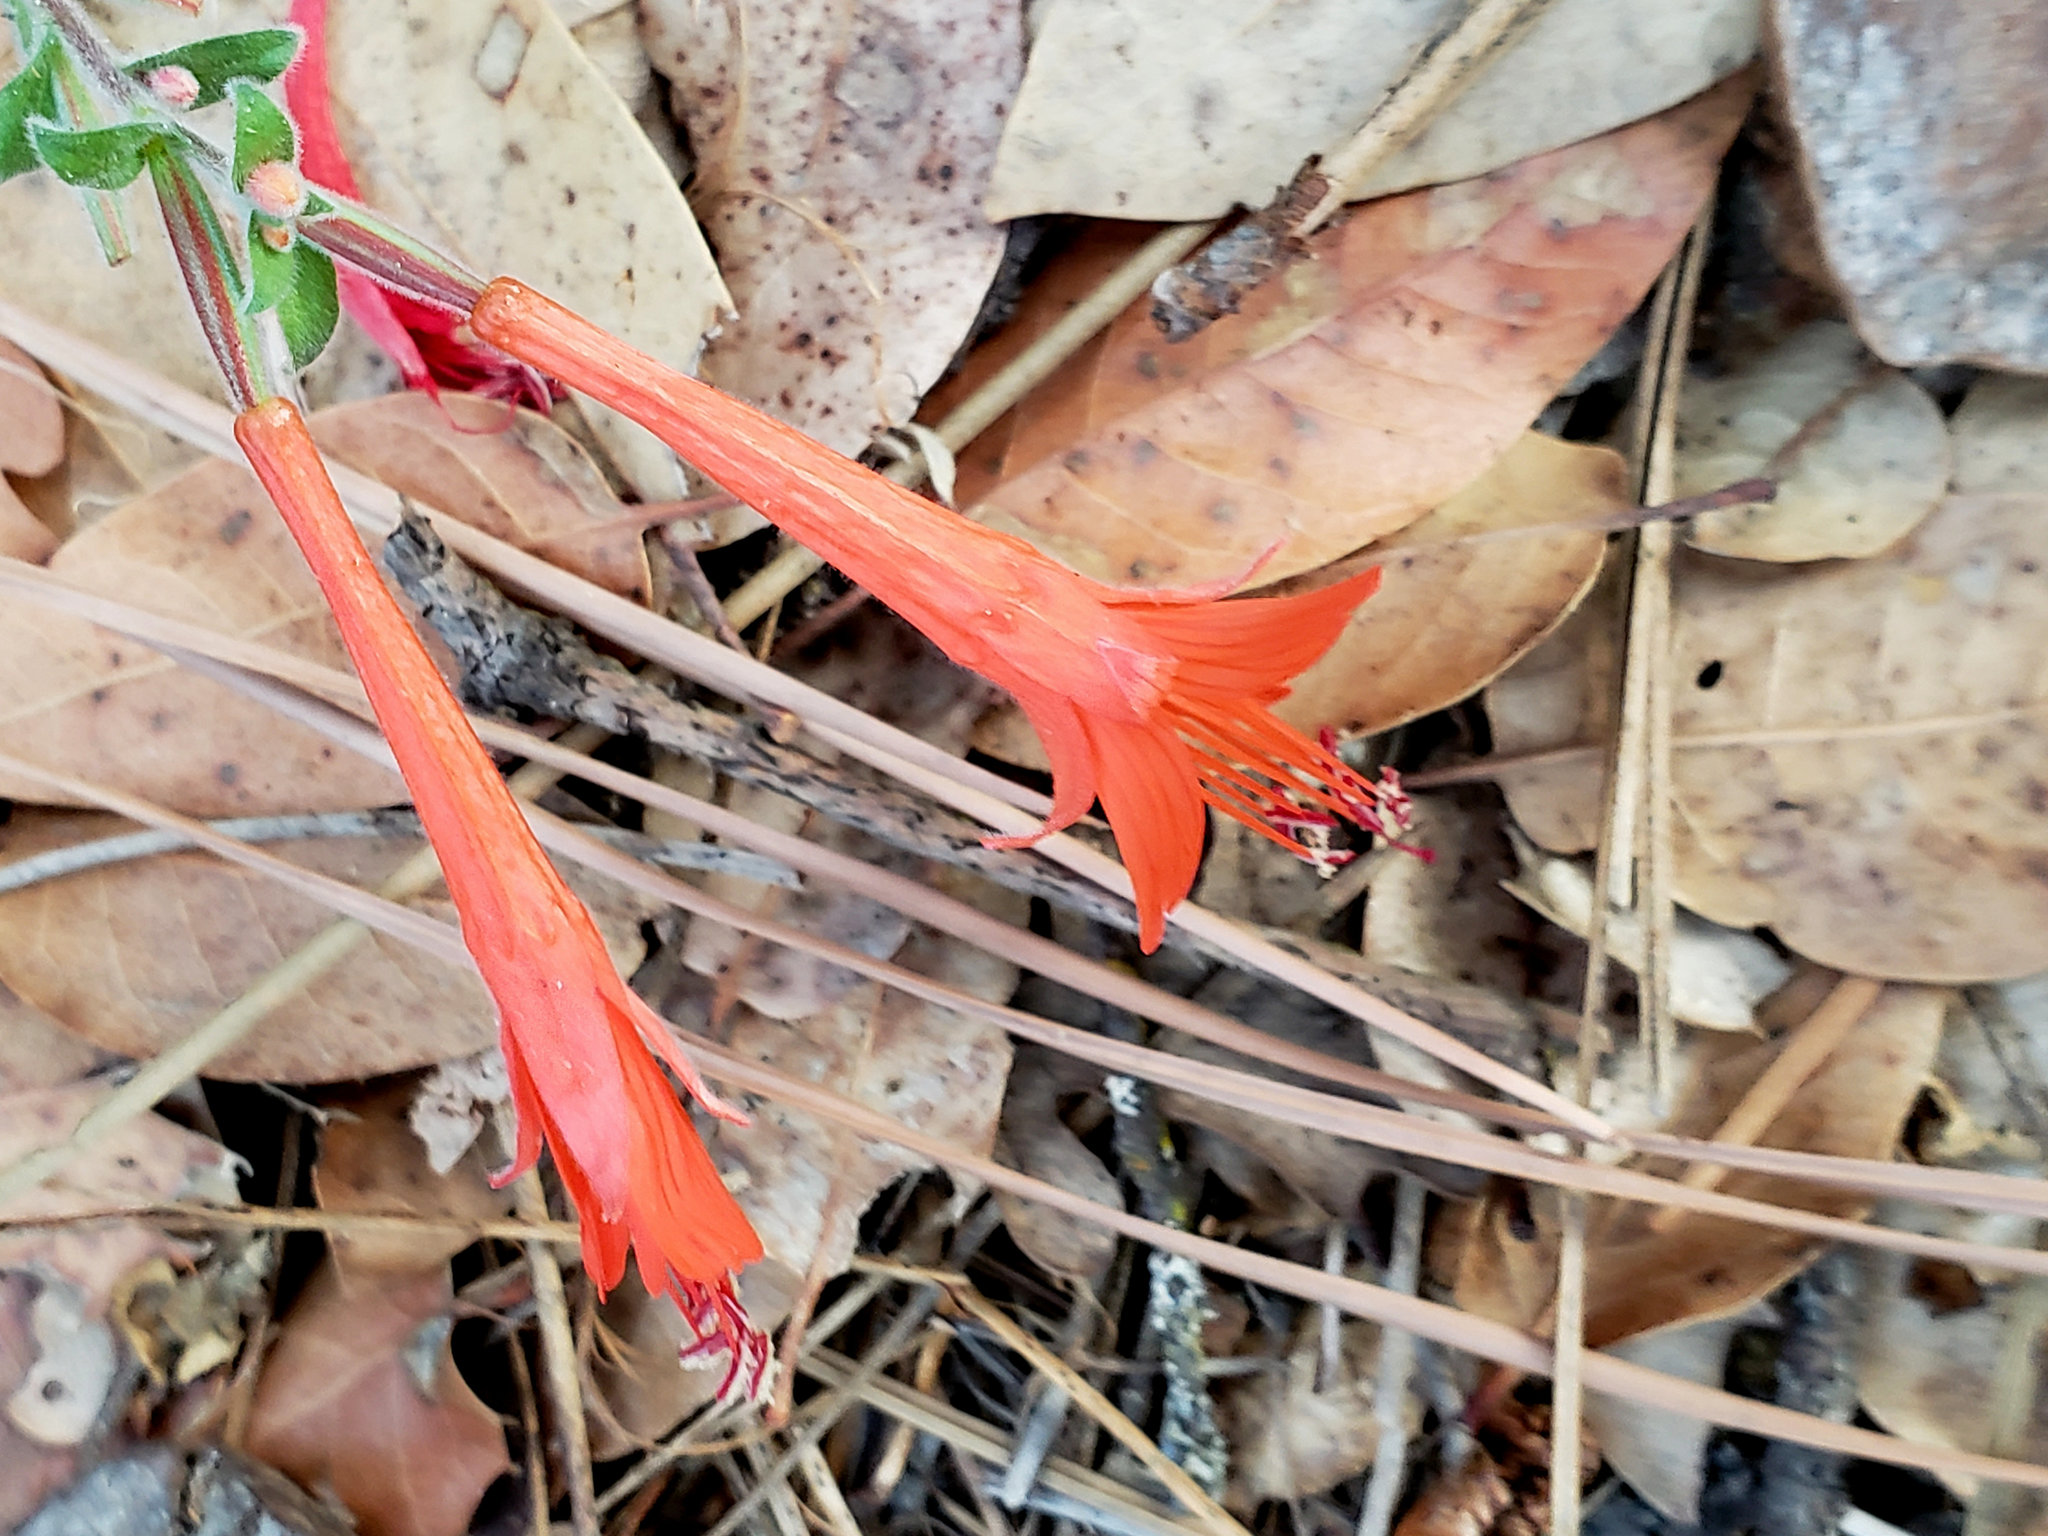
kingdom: Plantae
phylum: Tracheophyta
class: Magnoliopsida
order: Myrtales
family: Onagraceae
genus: Epilobium
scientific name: Epilobium canum
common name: California-fuchsia
